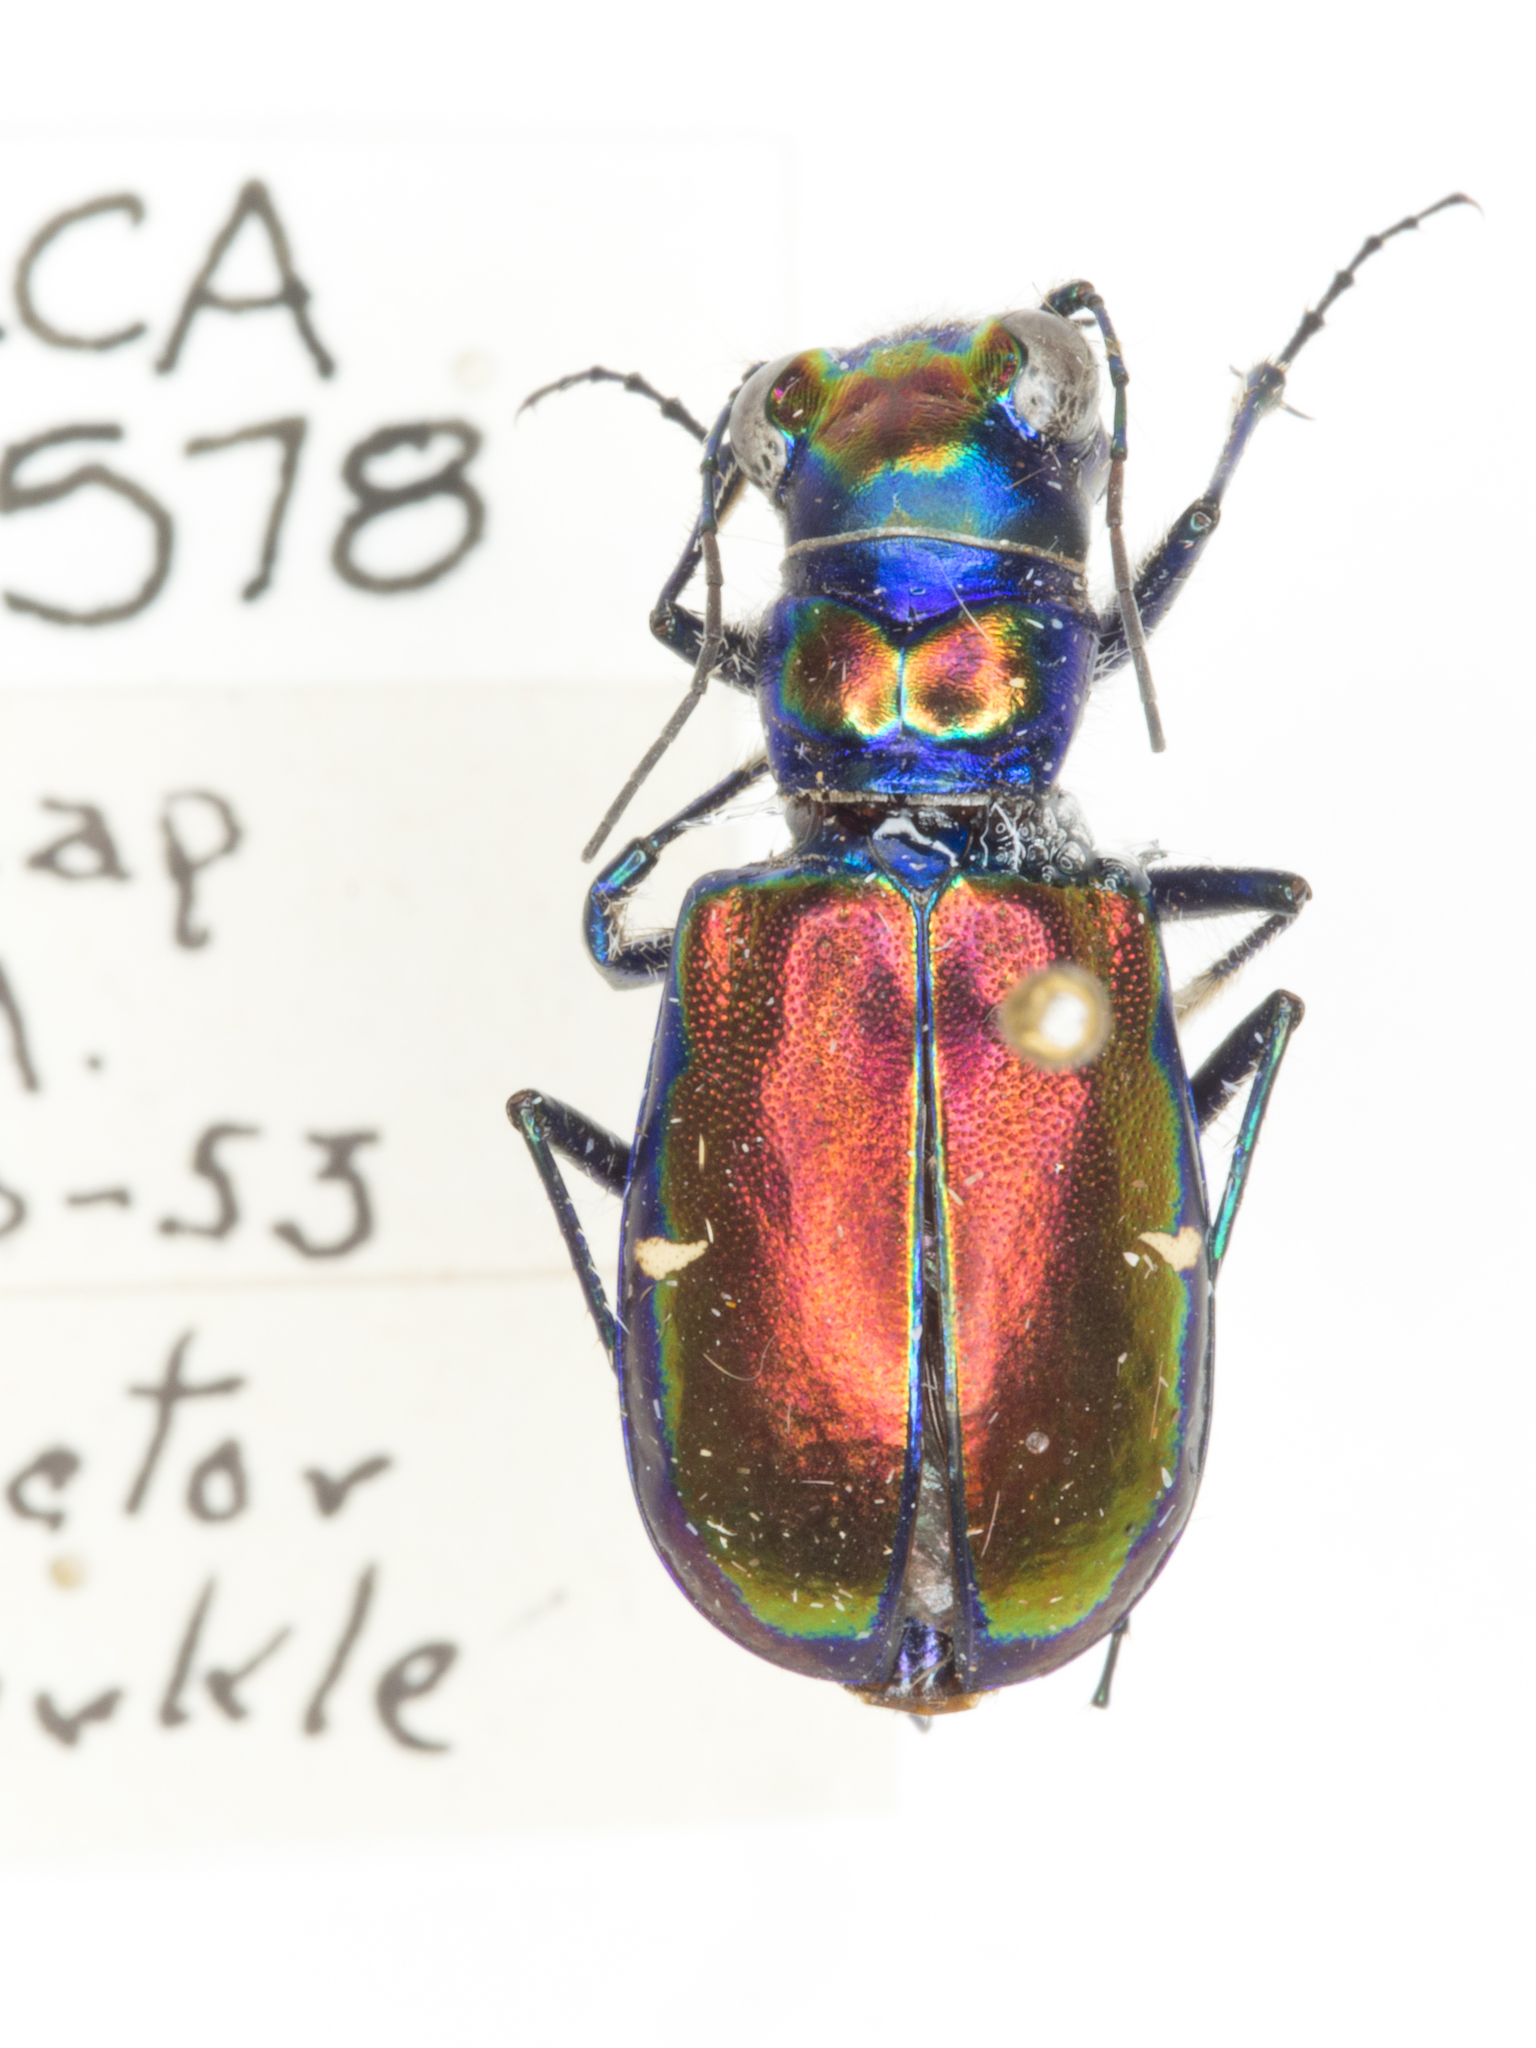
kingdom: Animalia
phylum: Arthropoda
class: Insecta
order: Coleoptera
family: Carabidae
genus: Cicindela
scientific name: Cicindela pulchra
